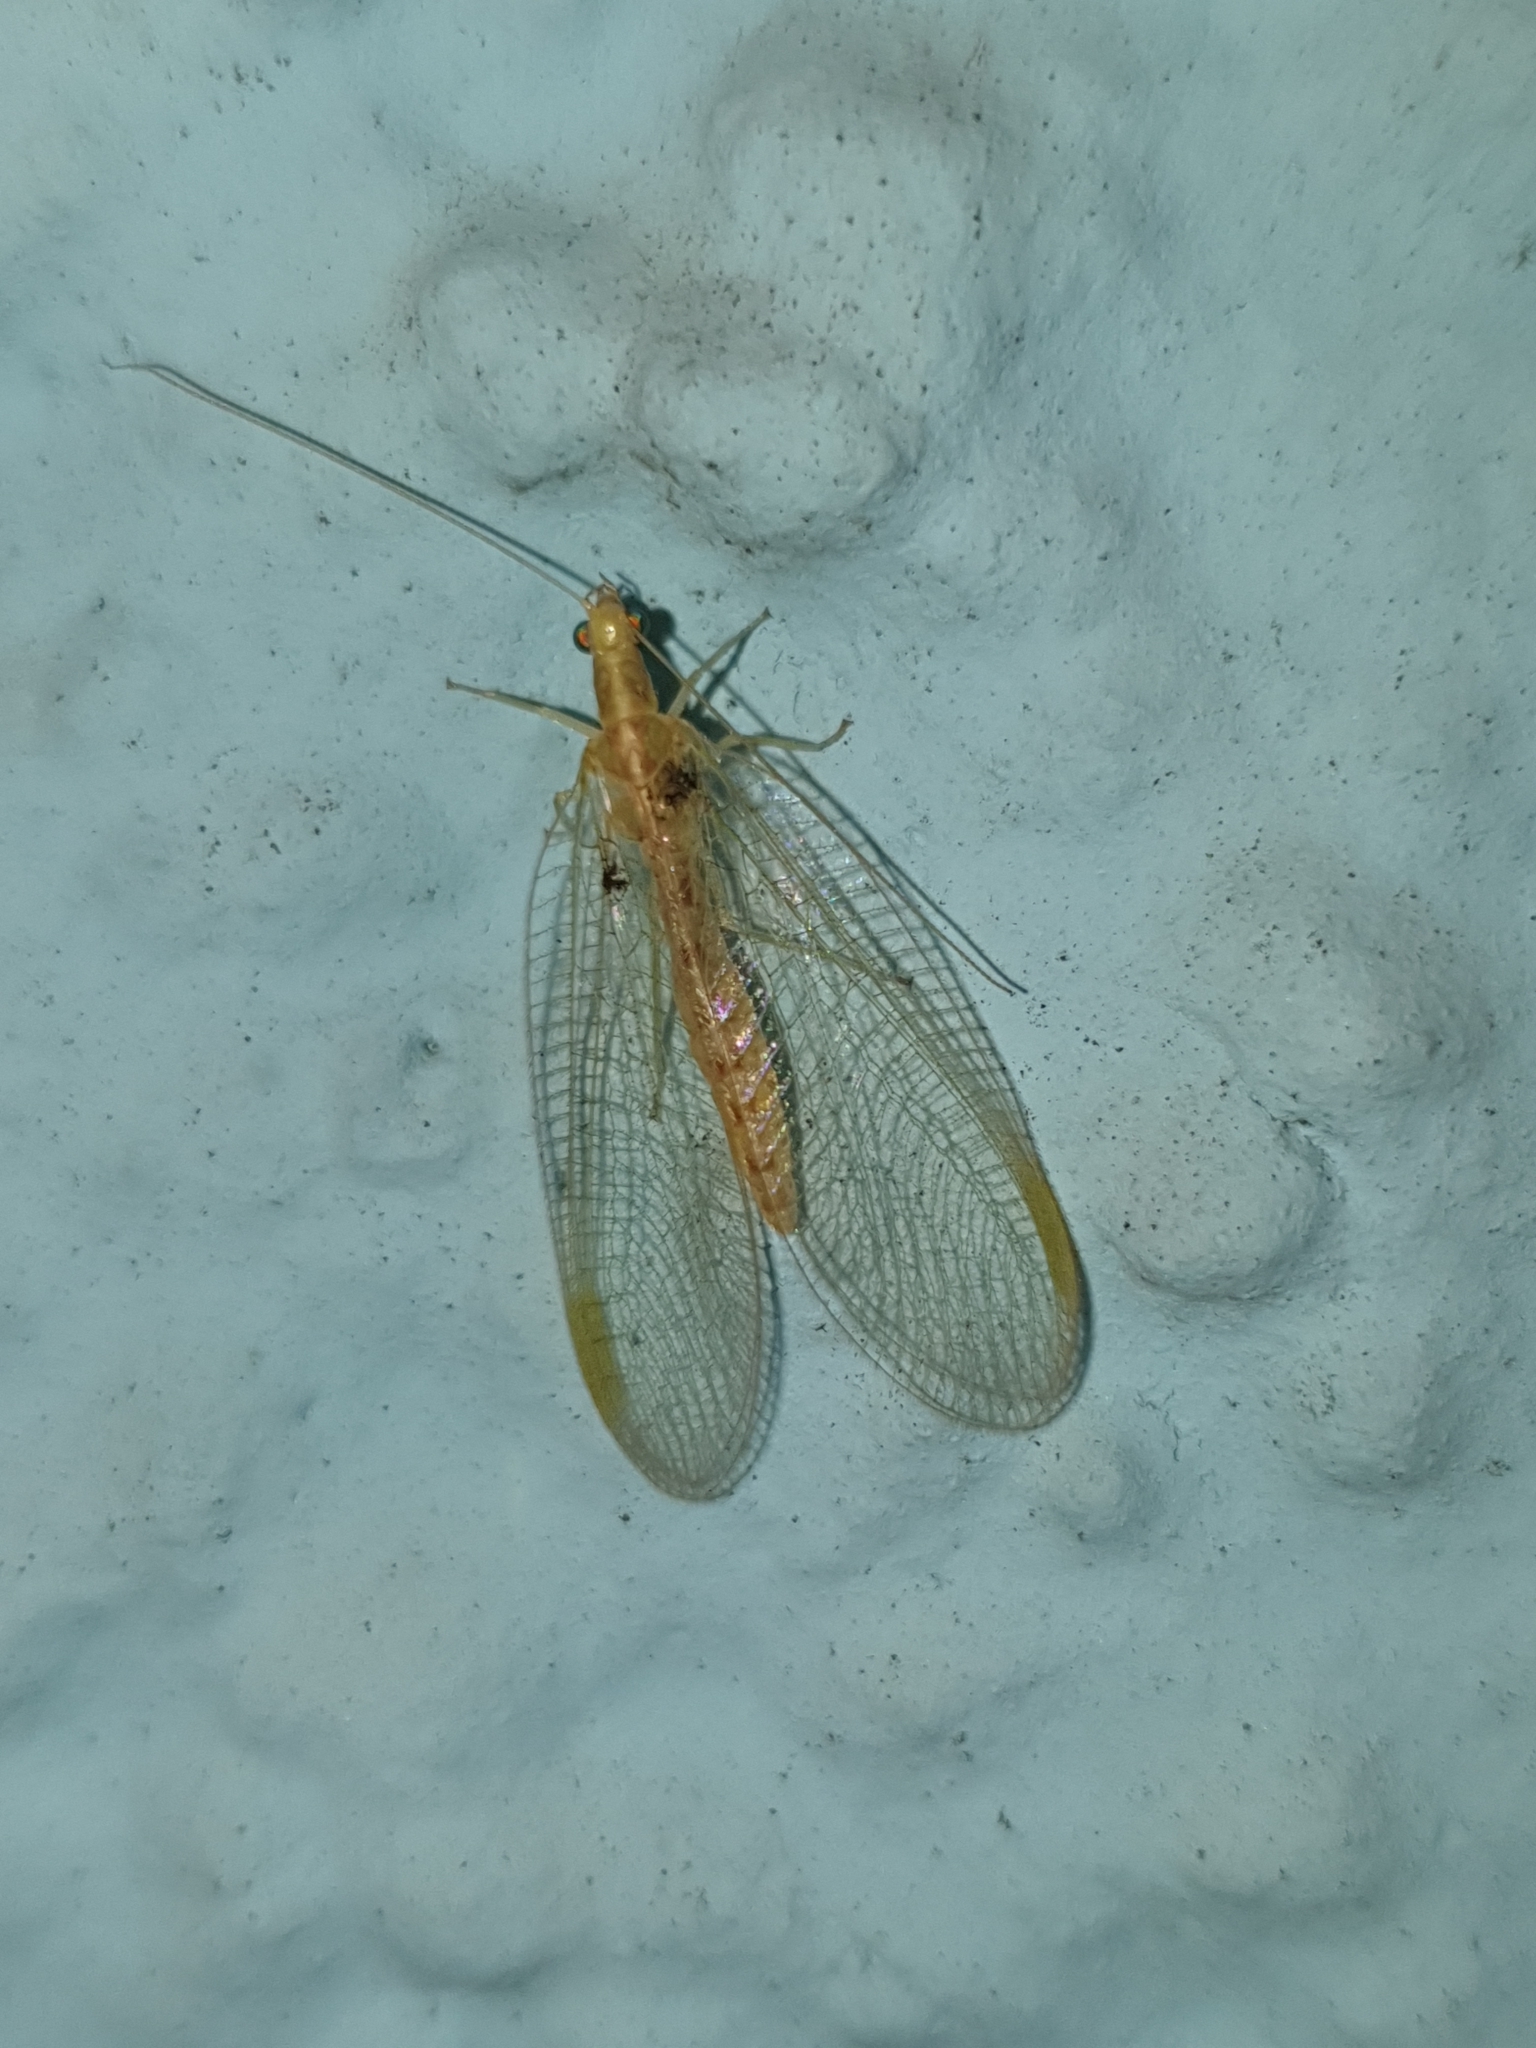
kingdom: Animalia
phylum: Arthropoda
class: Insecta
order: Neuroptera
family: Chrysopidae
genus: Chrysoperla
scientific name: Chrysoperla
